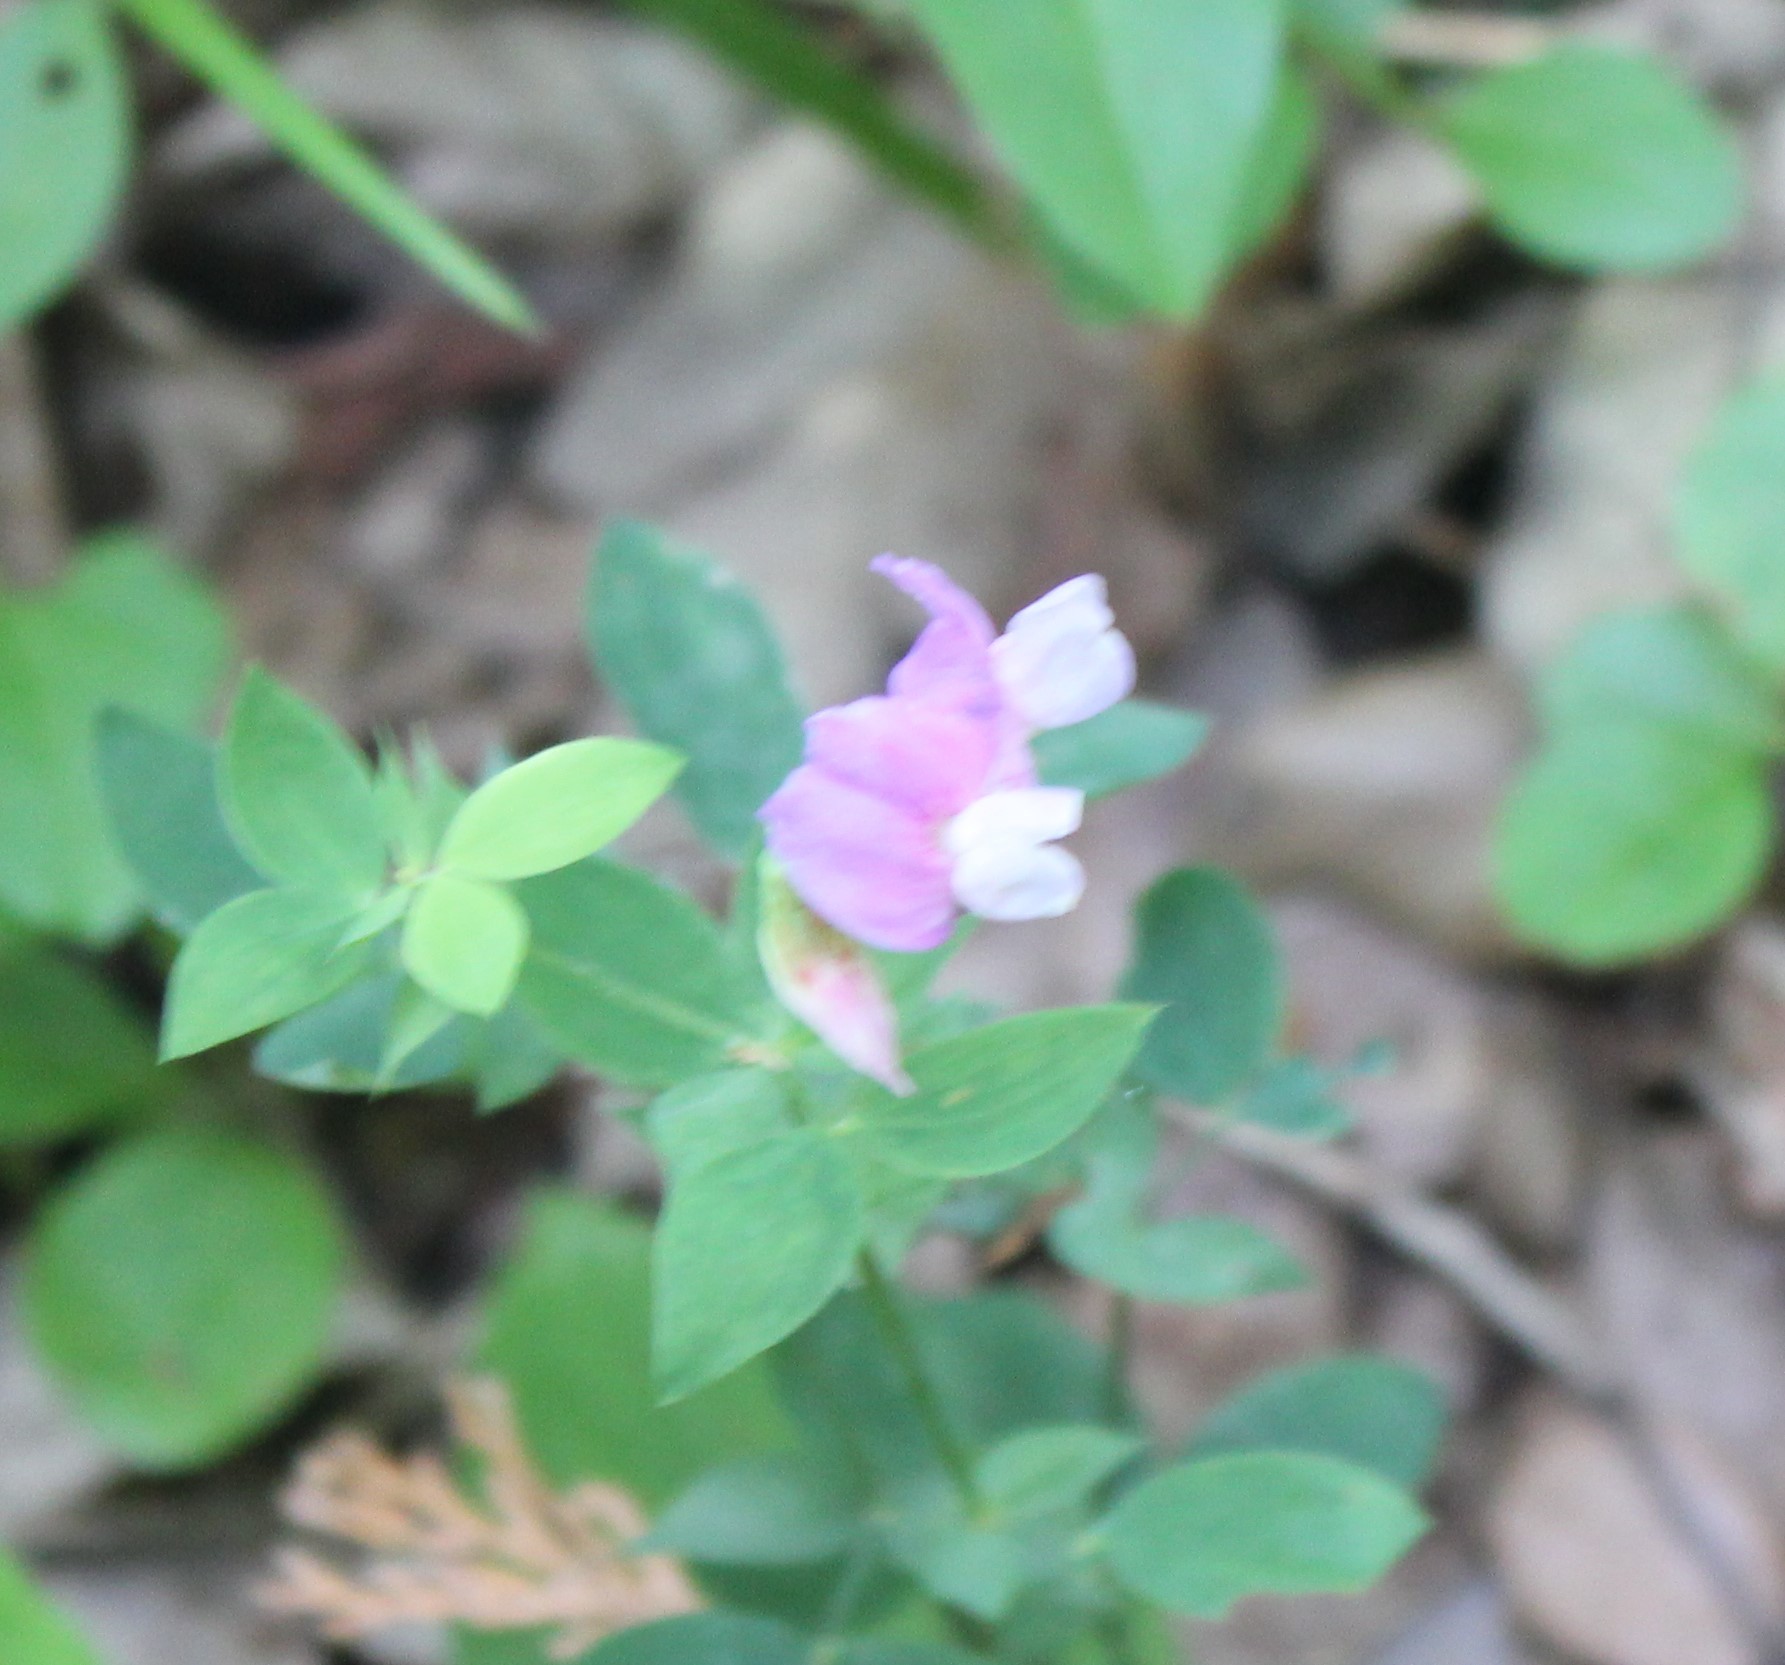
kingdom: Plantae
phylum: Tracheophyta
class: Magnoliopsida
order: Fabales
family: Fabaceae
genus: Lathyrus
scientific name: Lathyrus laxiflorus
